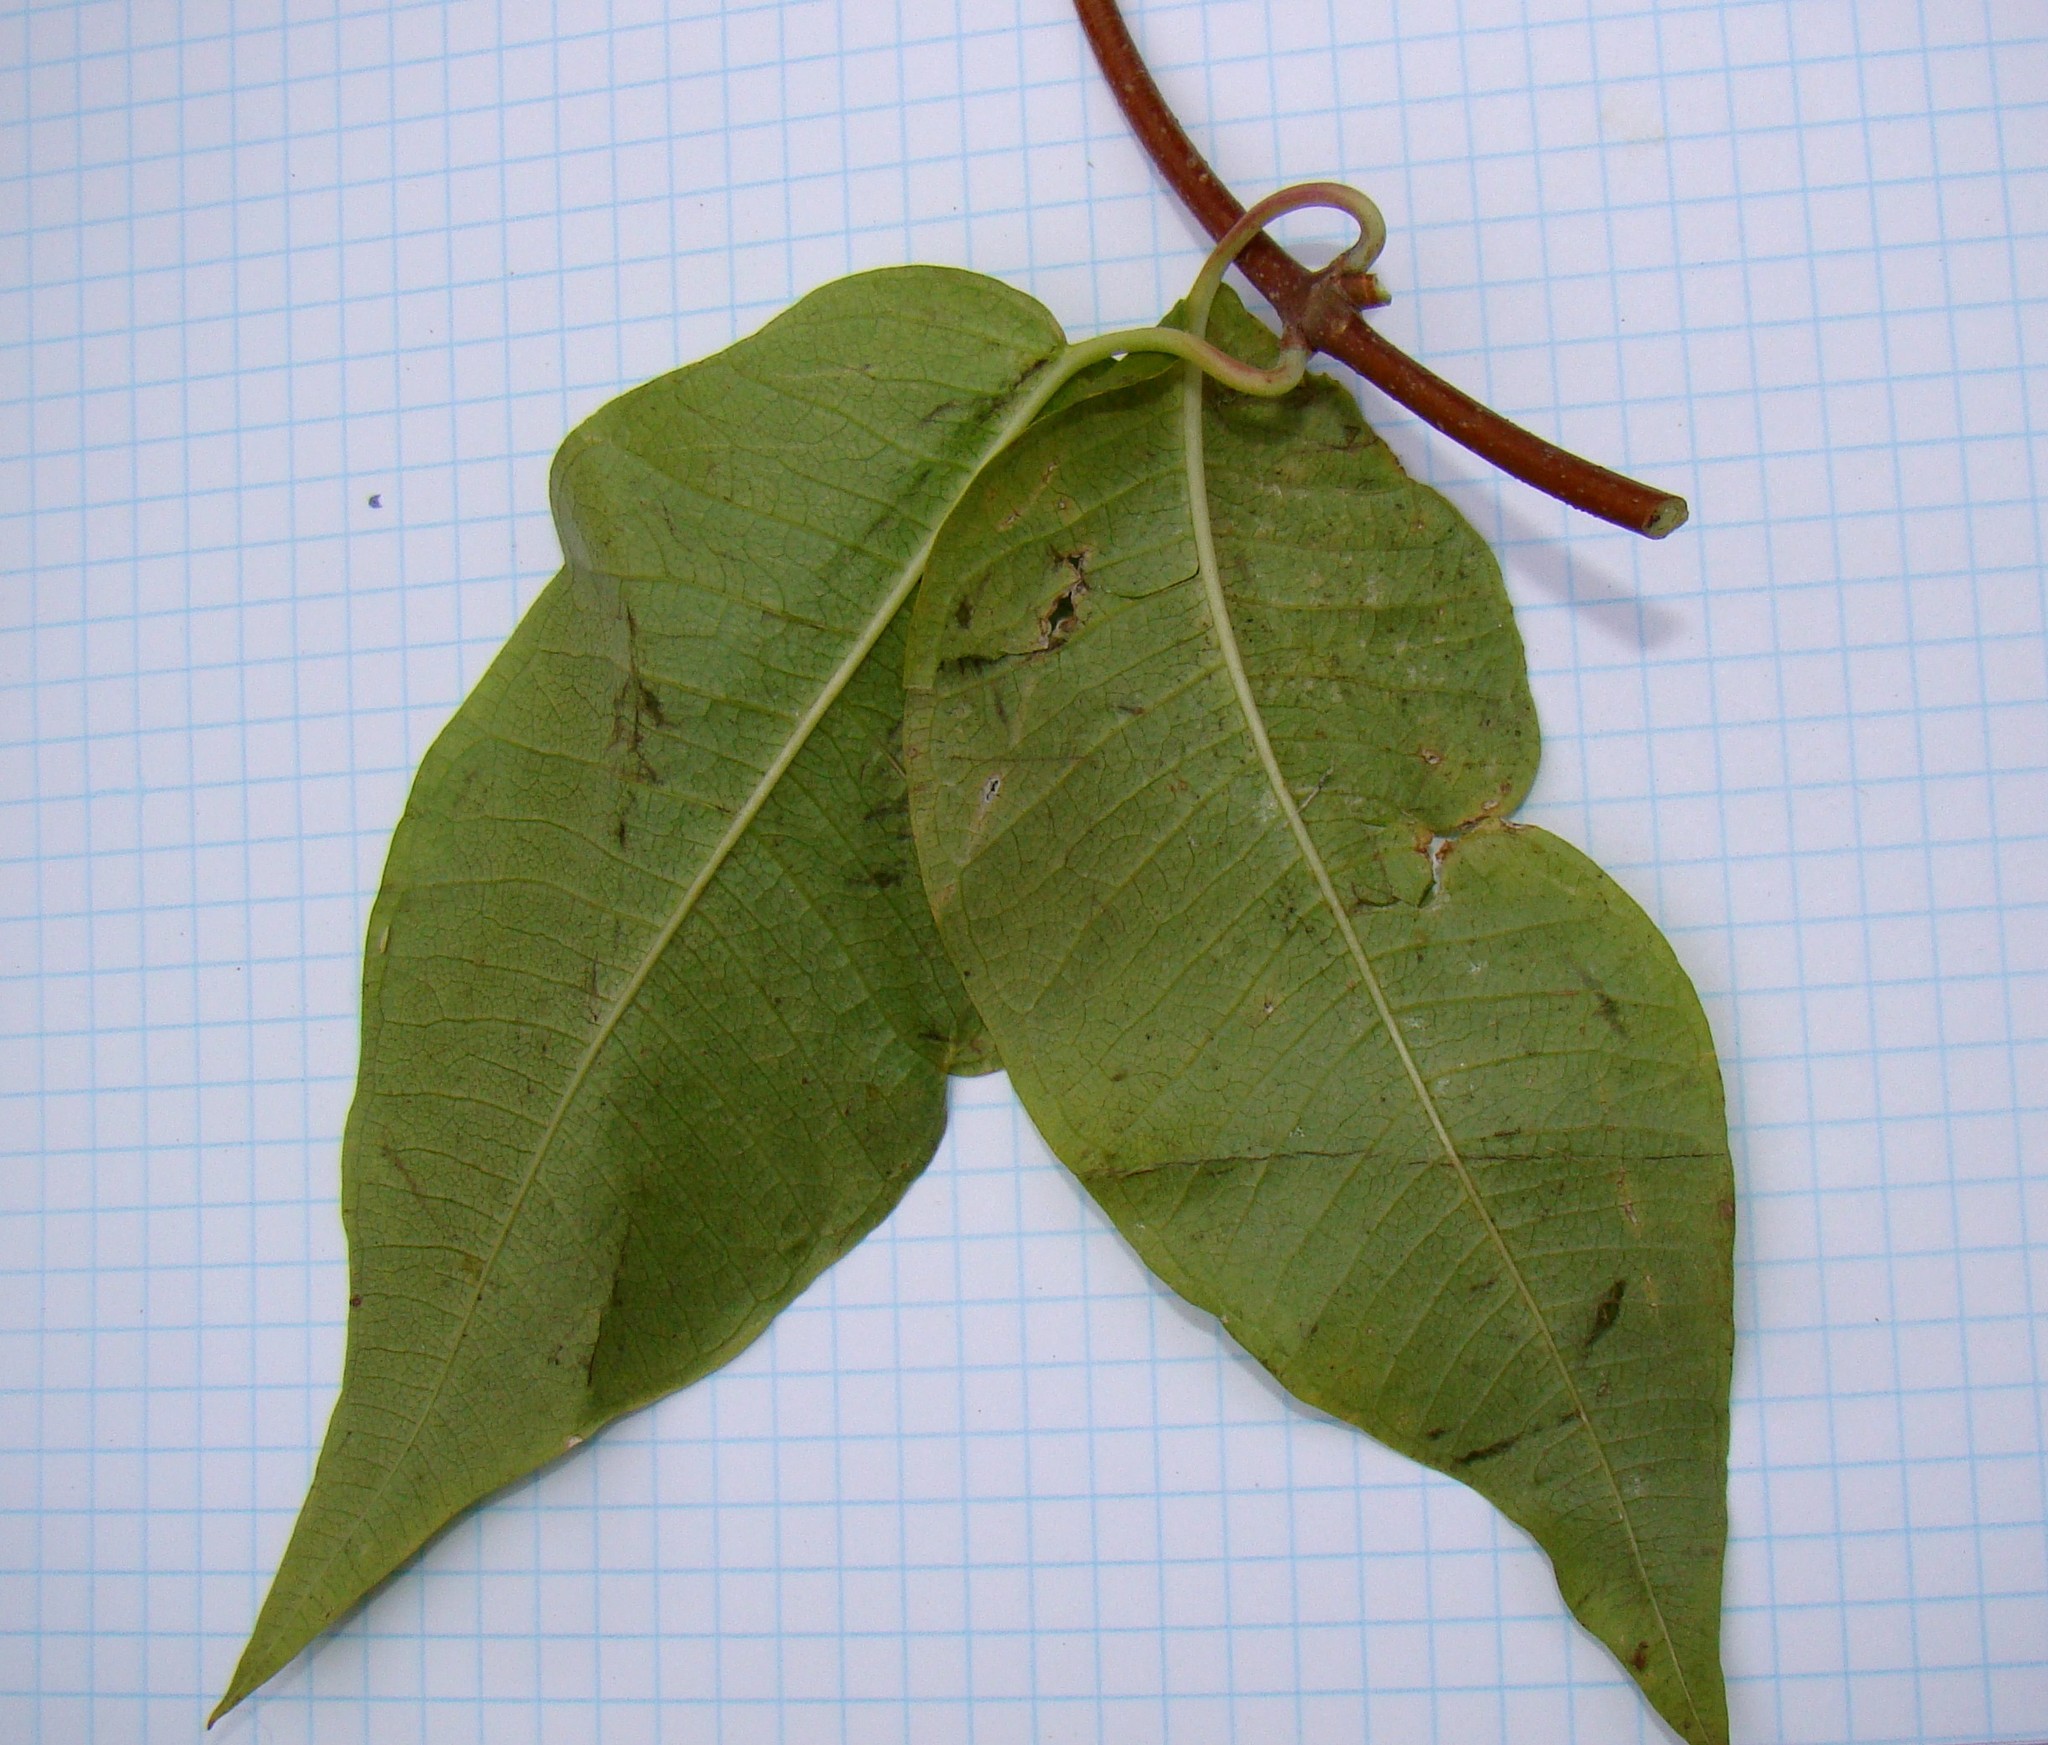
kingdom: Plantae
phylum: Tracheophyta
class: Magnoliopsida
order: Gentianales
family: Apocynaceae
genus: Periploca
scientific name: Periploca graeca
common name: Silkvine
